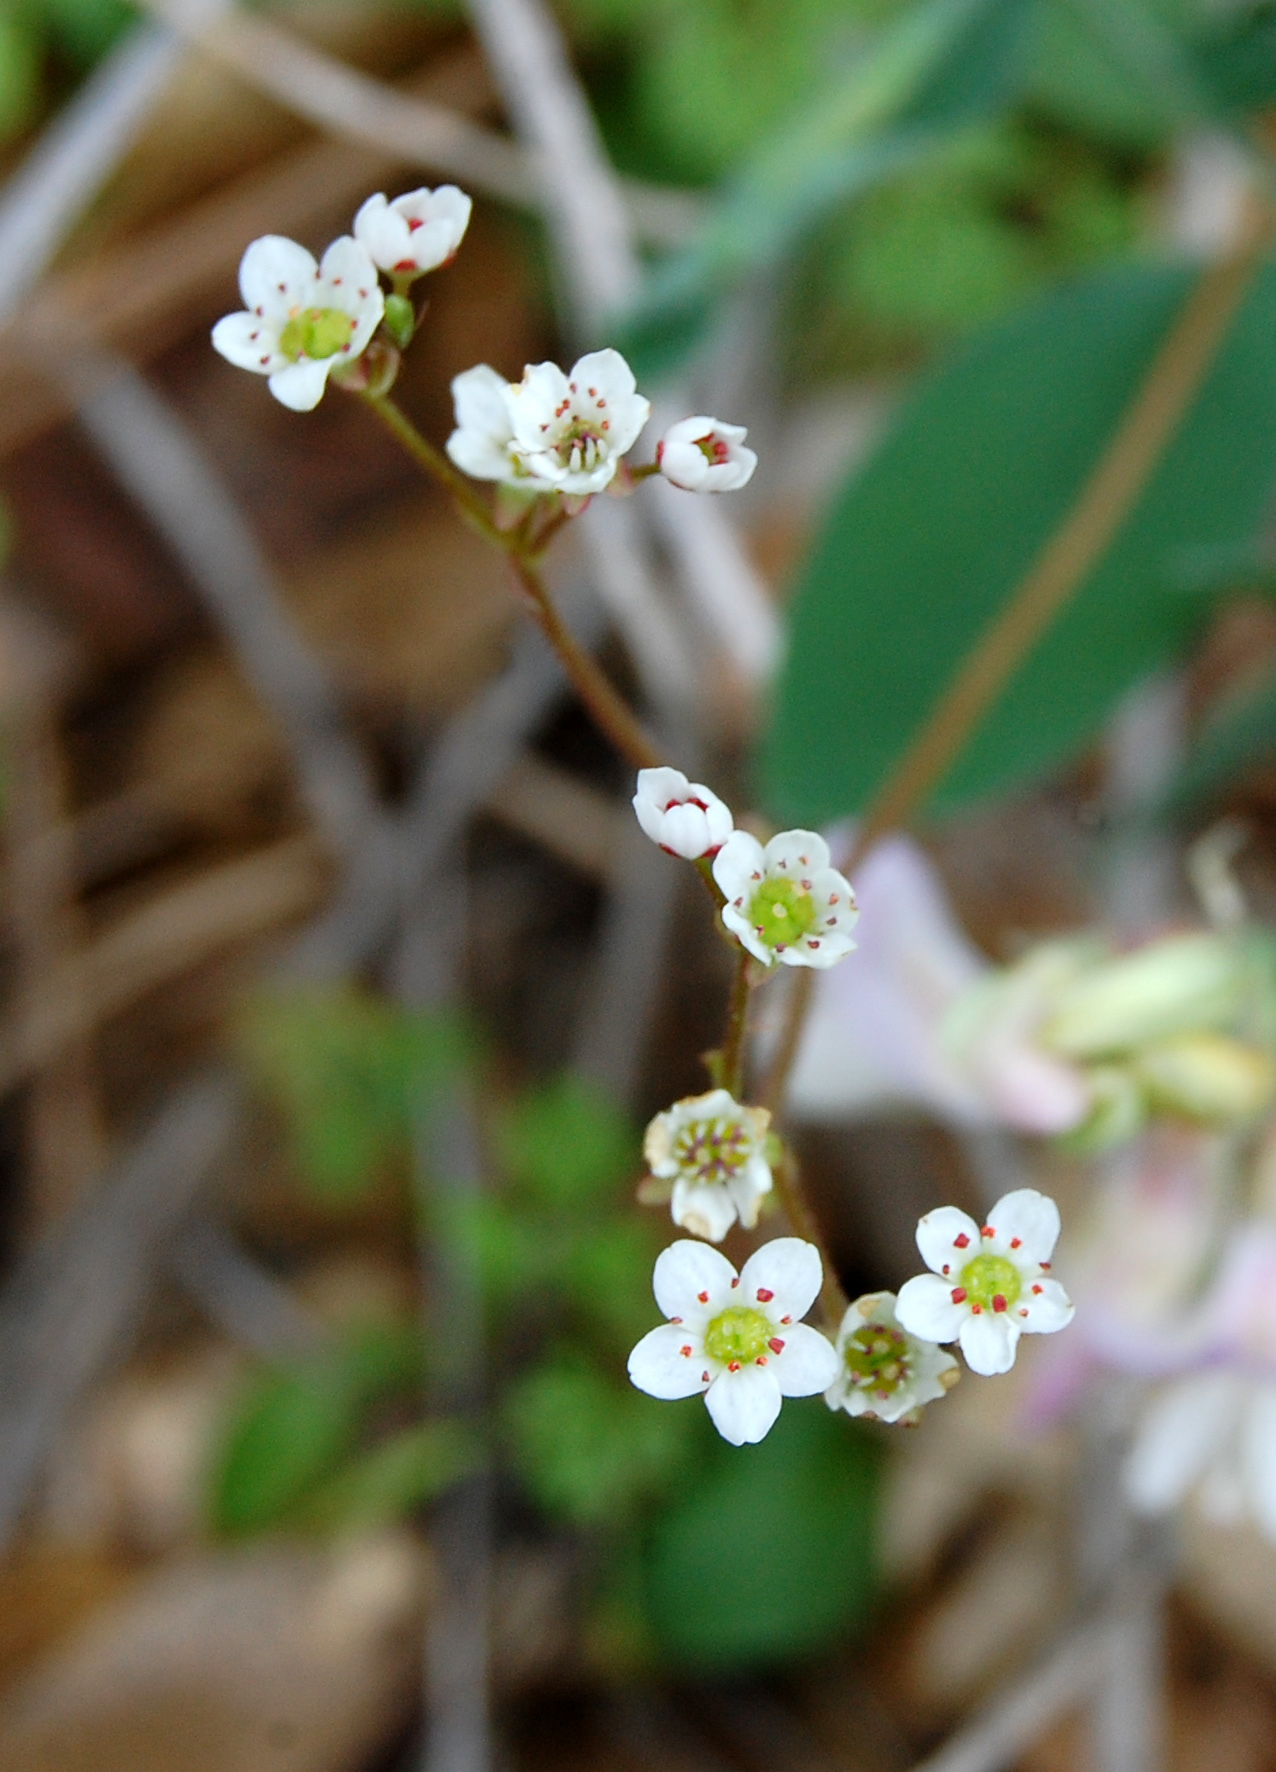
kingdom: Plantae
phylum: Tracheophyta
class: Magnoliopsida
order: Saxifragales
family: Saxifragaceae
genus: Micranthes
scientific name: Micranthes californica
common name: California saxifrage
